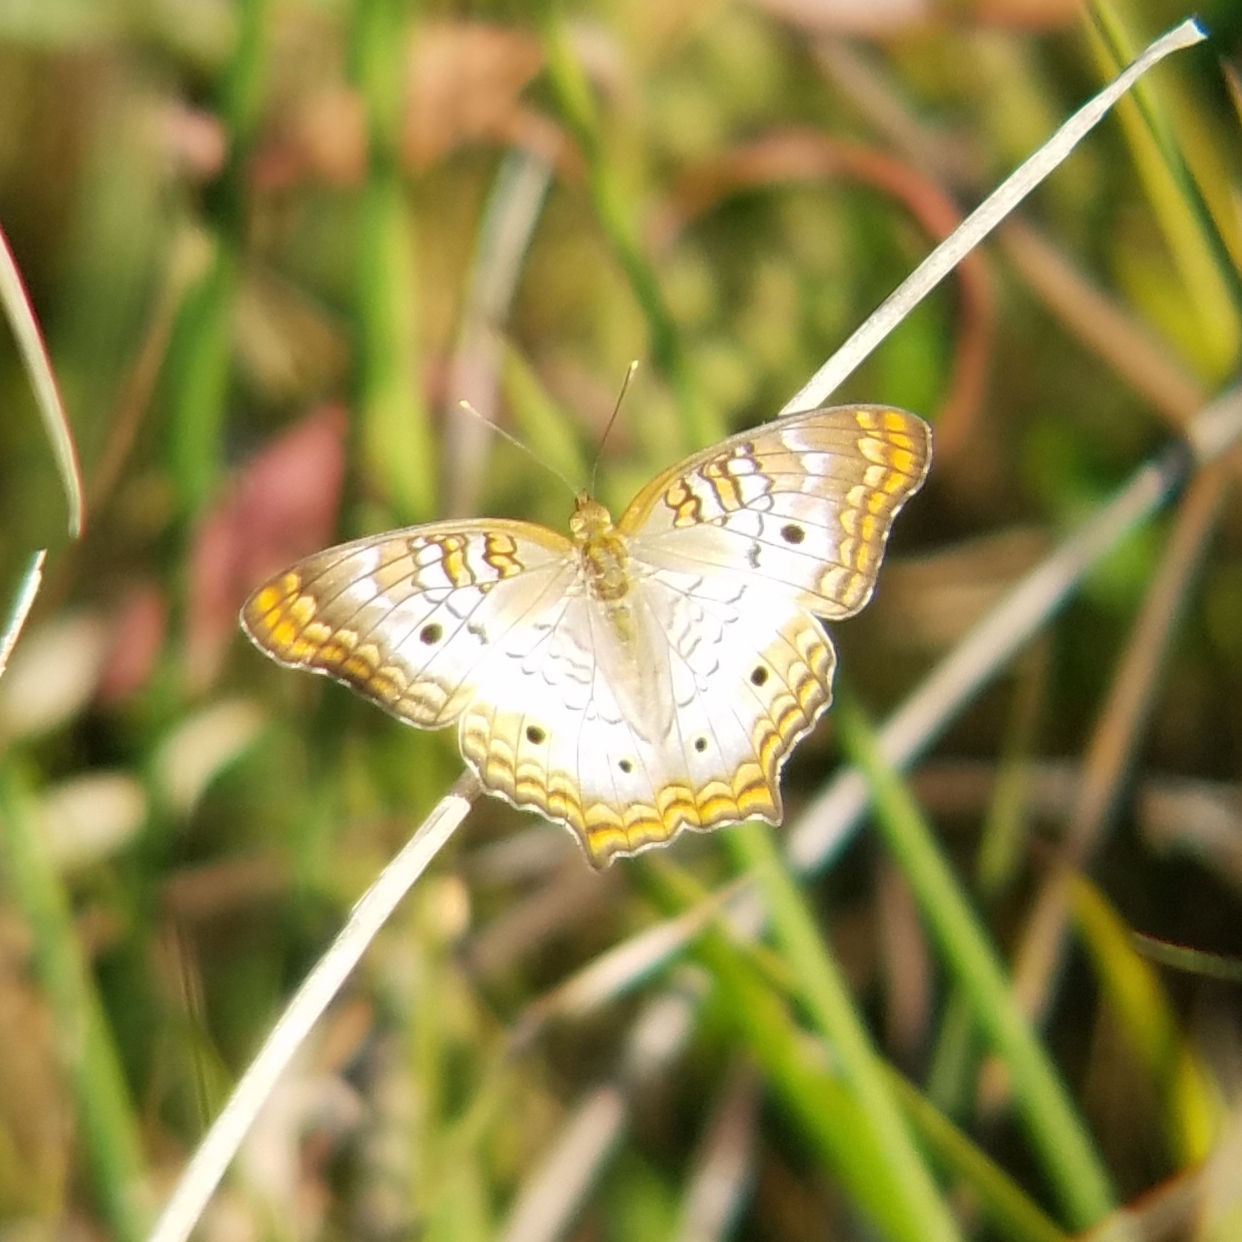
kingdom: Animalia
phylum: Arthropoda
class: Insecta
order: Lepidoptera
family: Nymphalidae
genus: Anartia
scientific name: Anartia jatrophae
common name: White peacock
